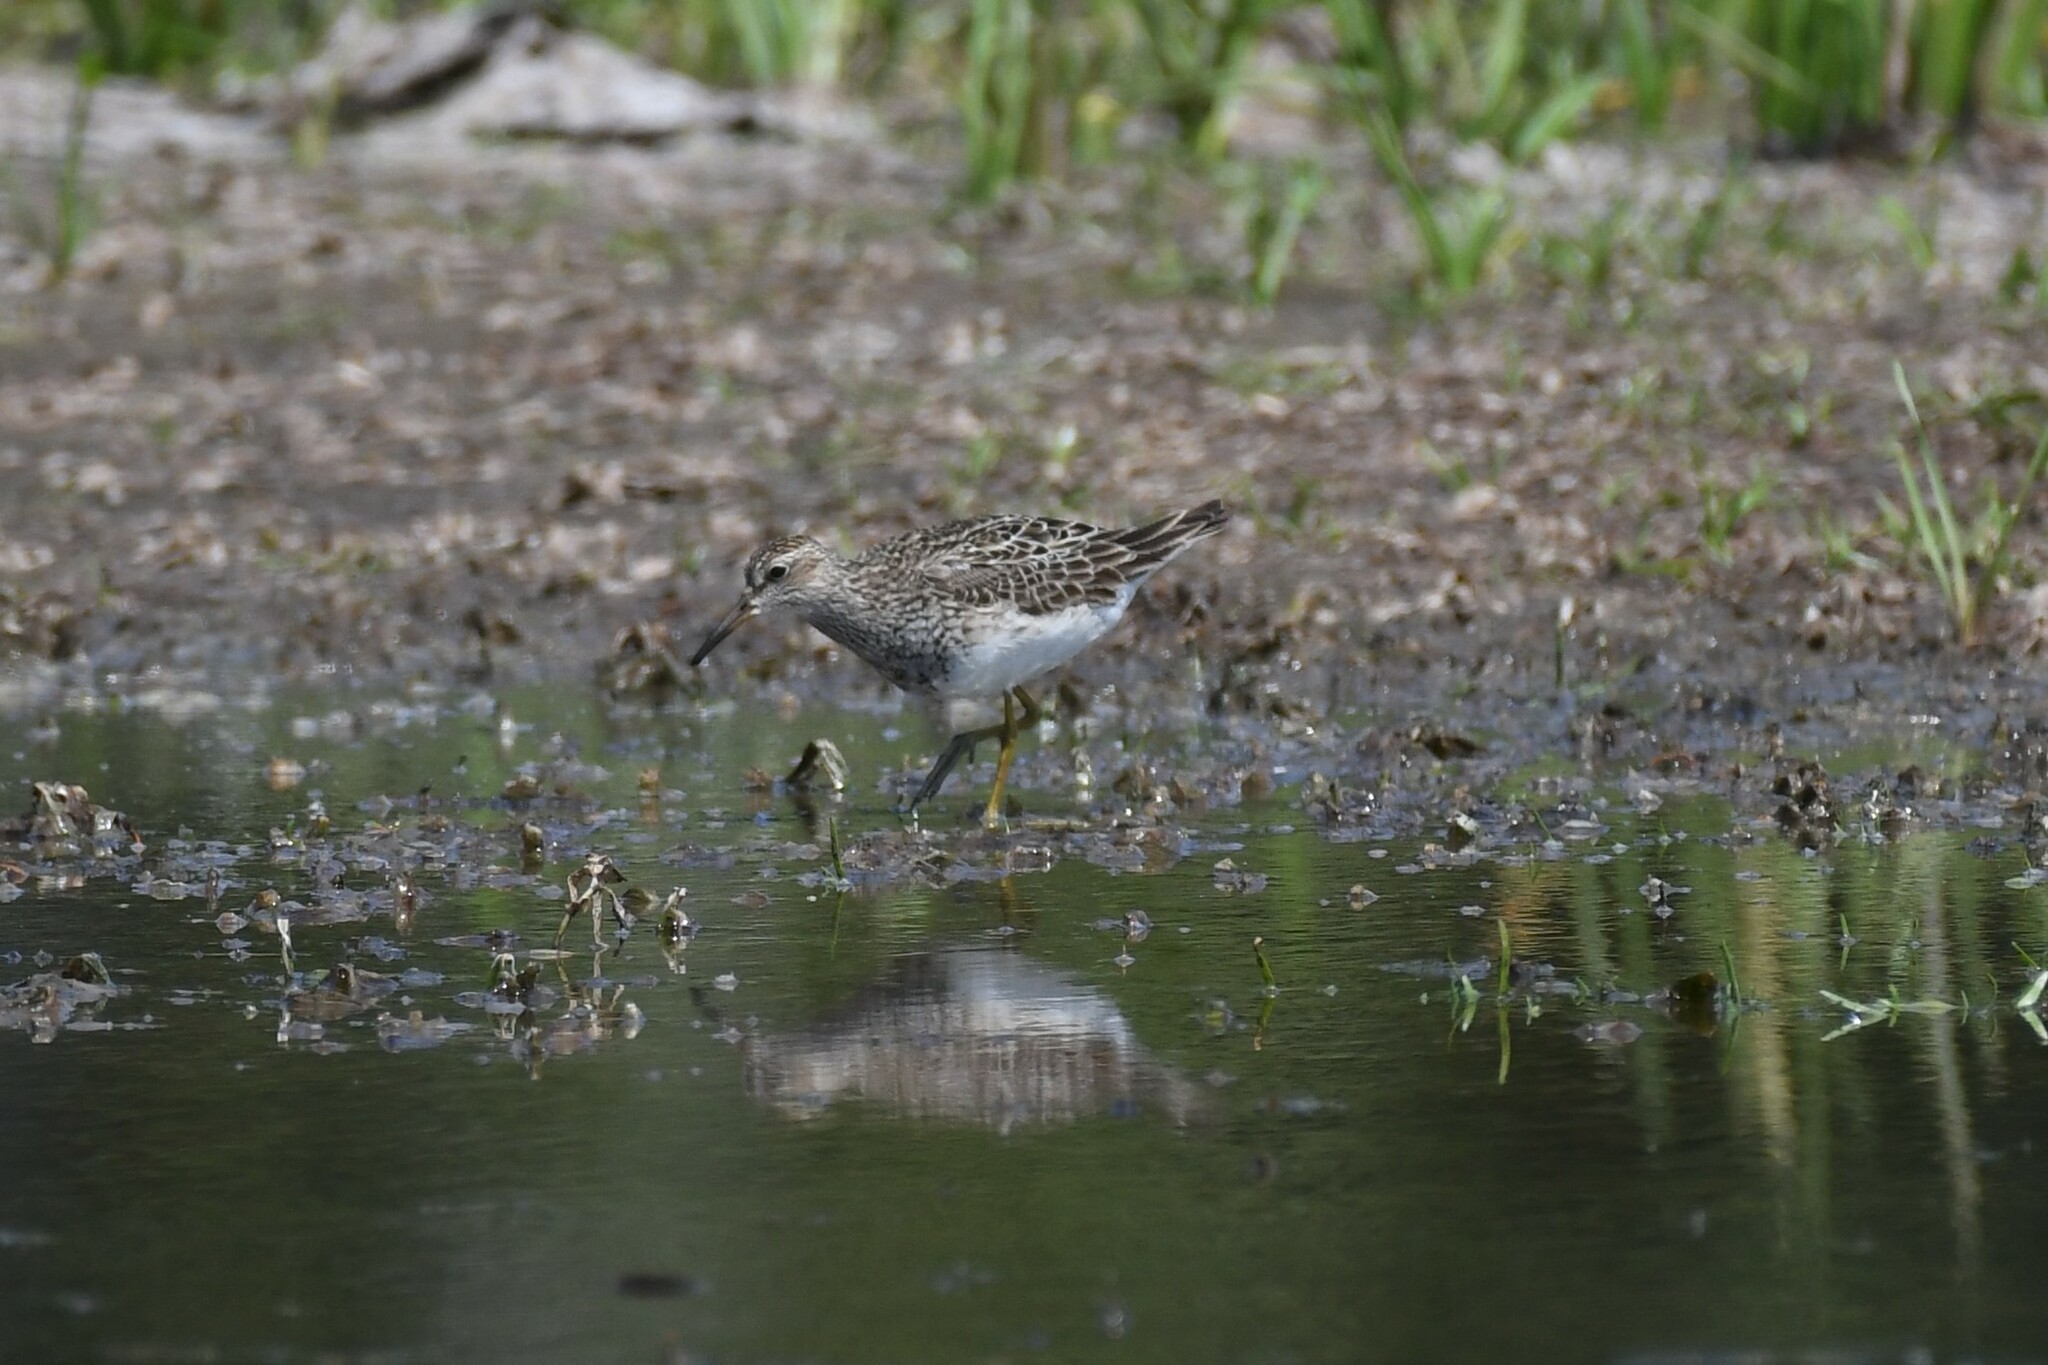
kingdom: Animalia
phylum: Chordata
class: Aves
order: Charadriiformes
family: Scolopacidae
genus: Calidris
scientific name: Calidris melanotos
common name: Pectoral sandpiper
